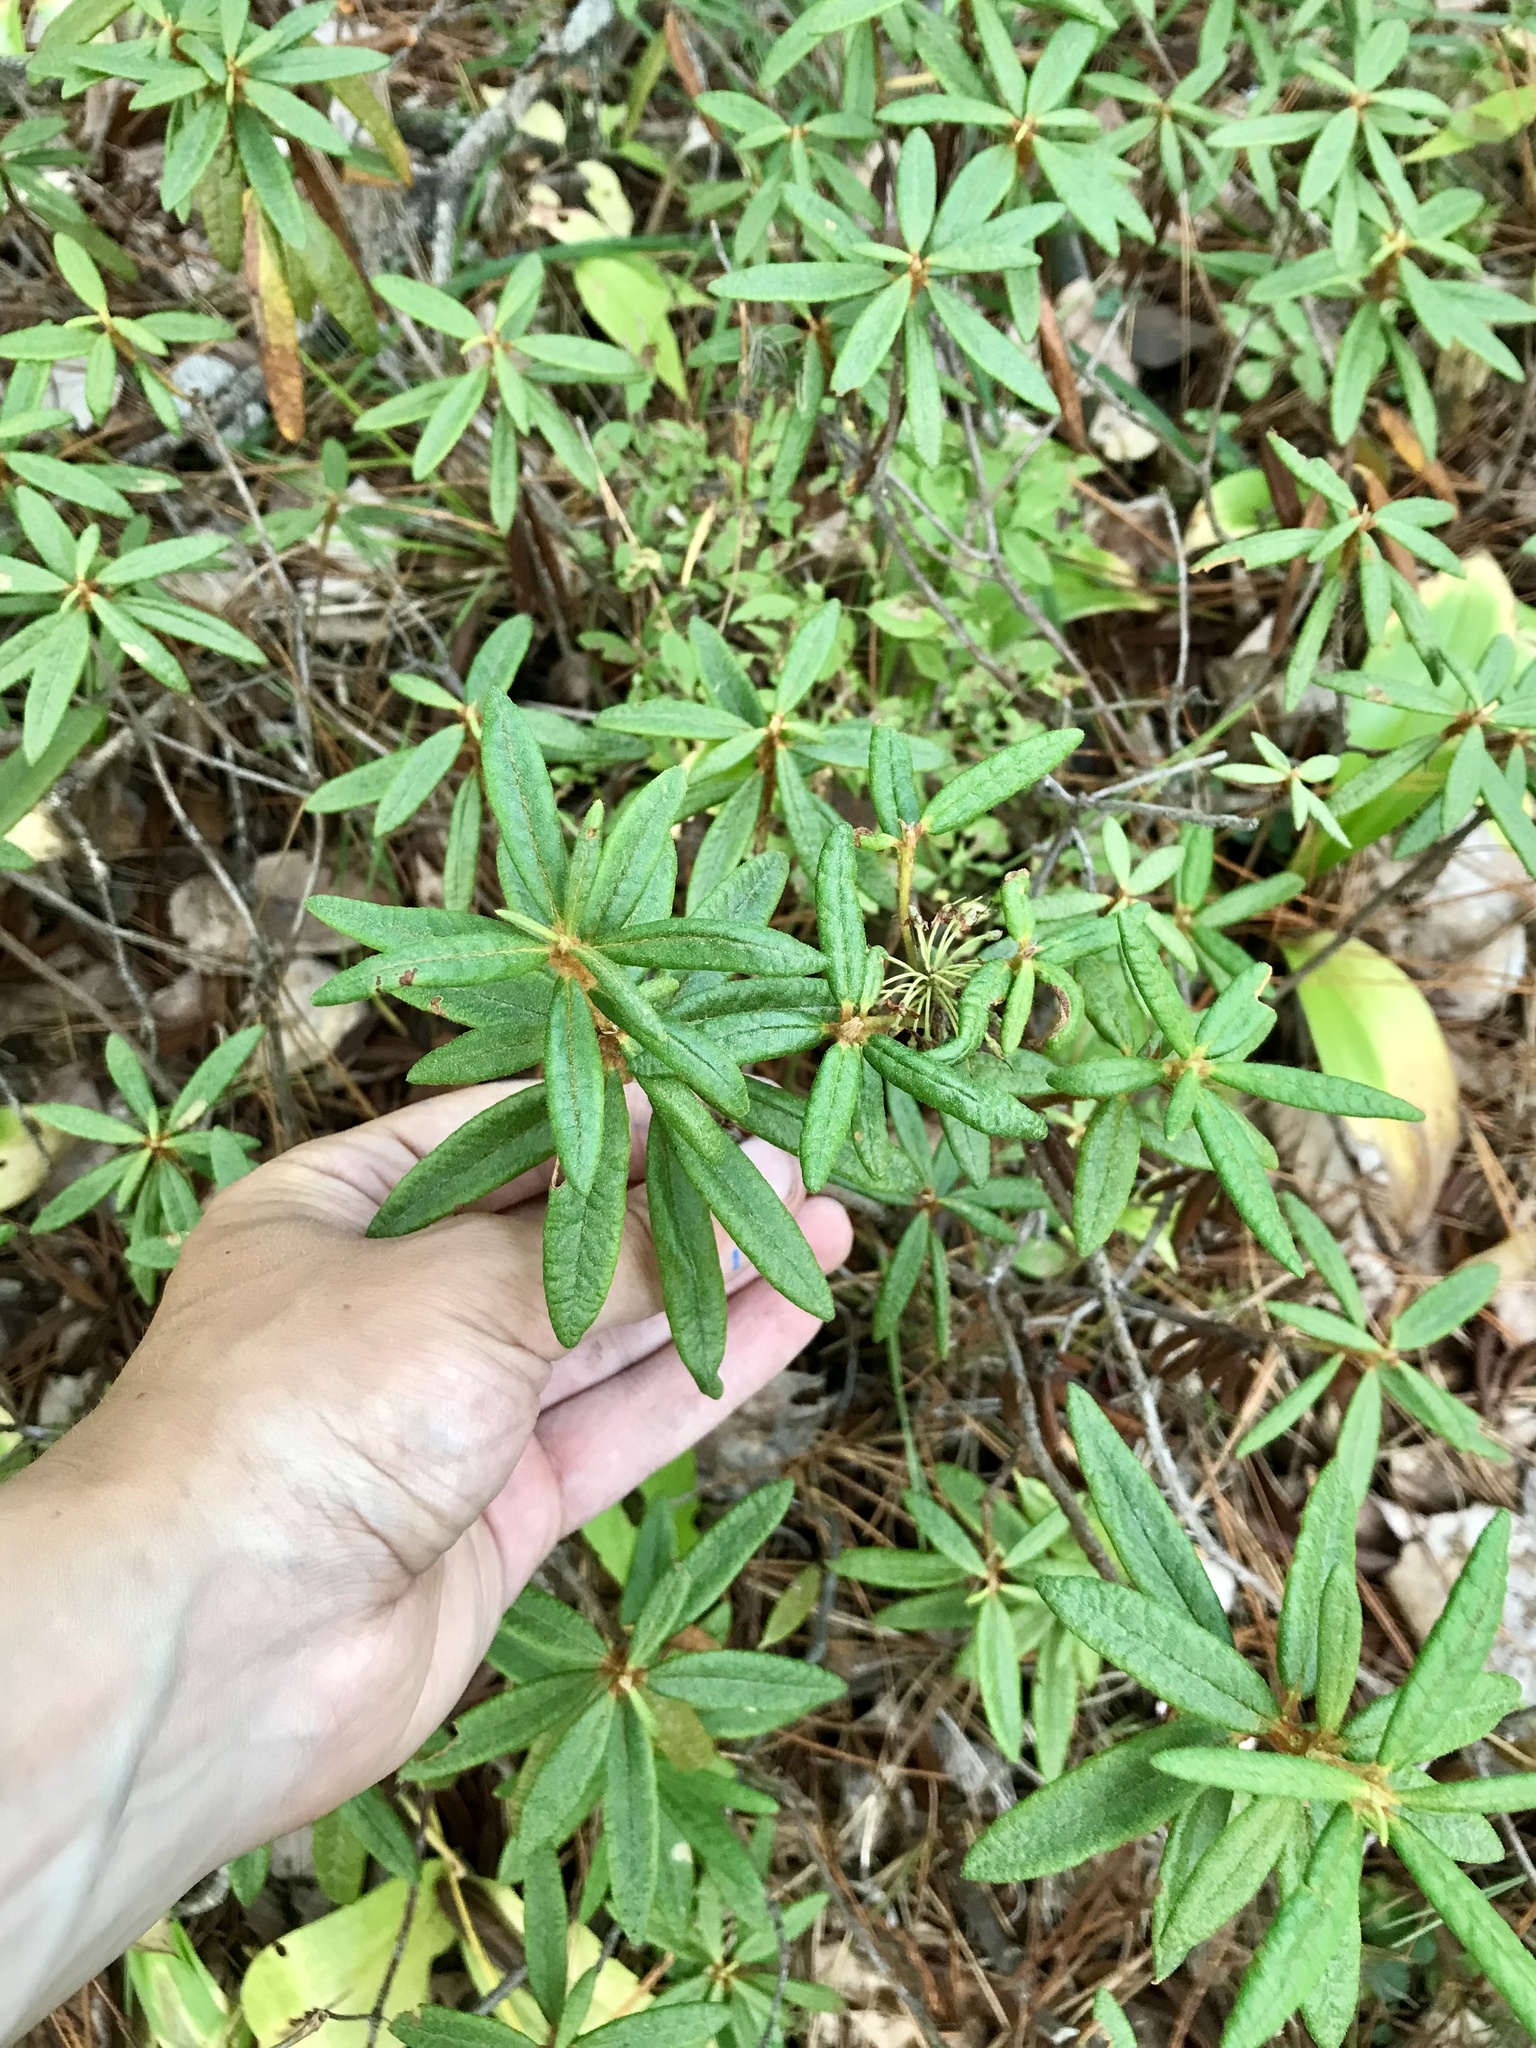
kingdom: Plantae
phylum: Tracheophyta
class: Magnoliopsida
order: Ericales
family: Ericaceae
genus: Rhododendron
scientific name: Rhododendron groenlandicum
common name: Bog labrador tea
